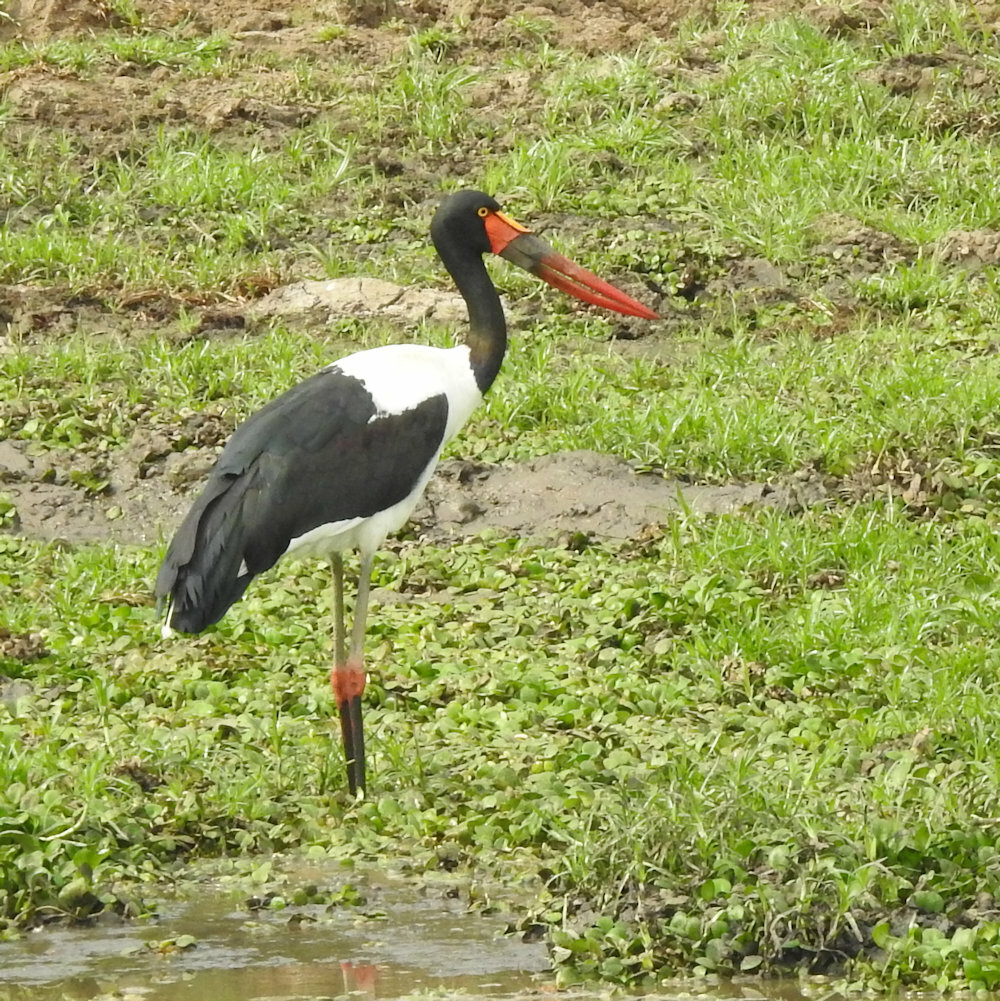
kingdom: Animalia
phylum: Chordata
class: Aves
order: Ciconiiformes
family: Ciconiidae
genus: Ephippiorhynchus
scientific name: Ephippiorhynchus senegalensis
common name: Saddle-billed stork
